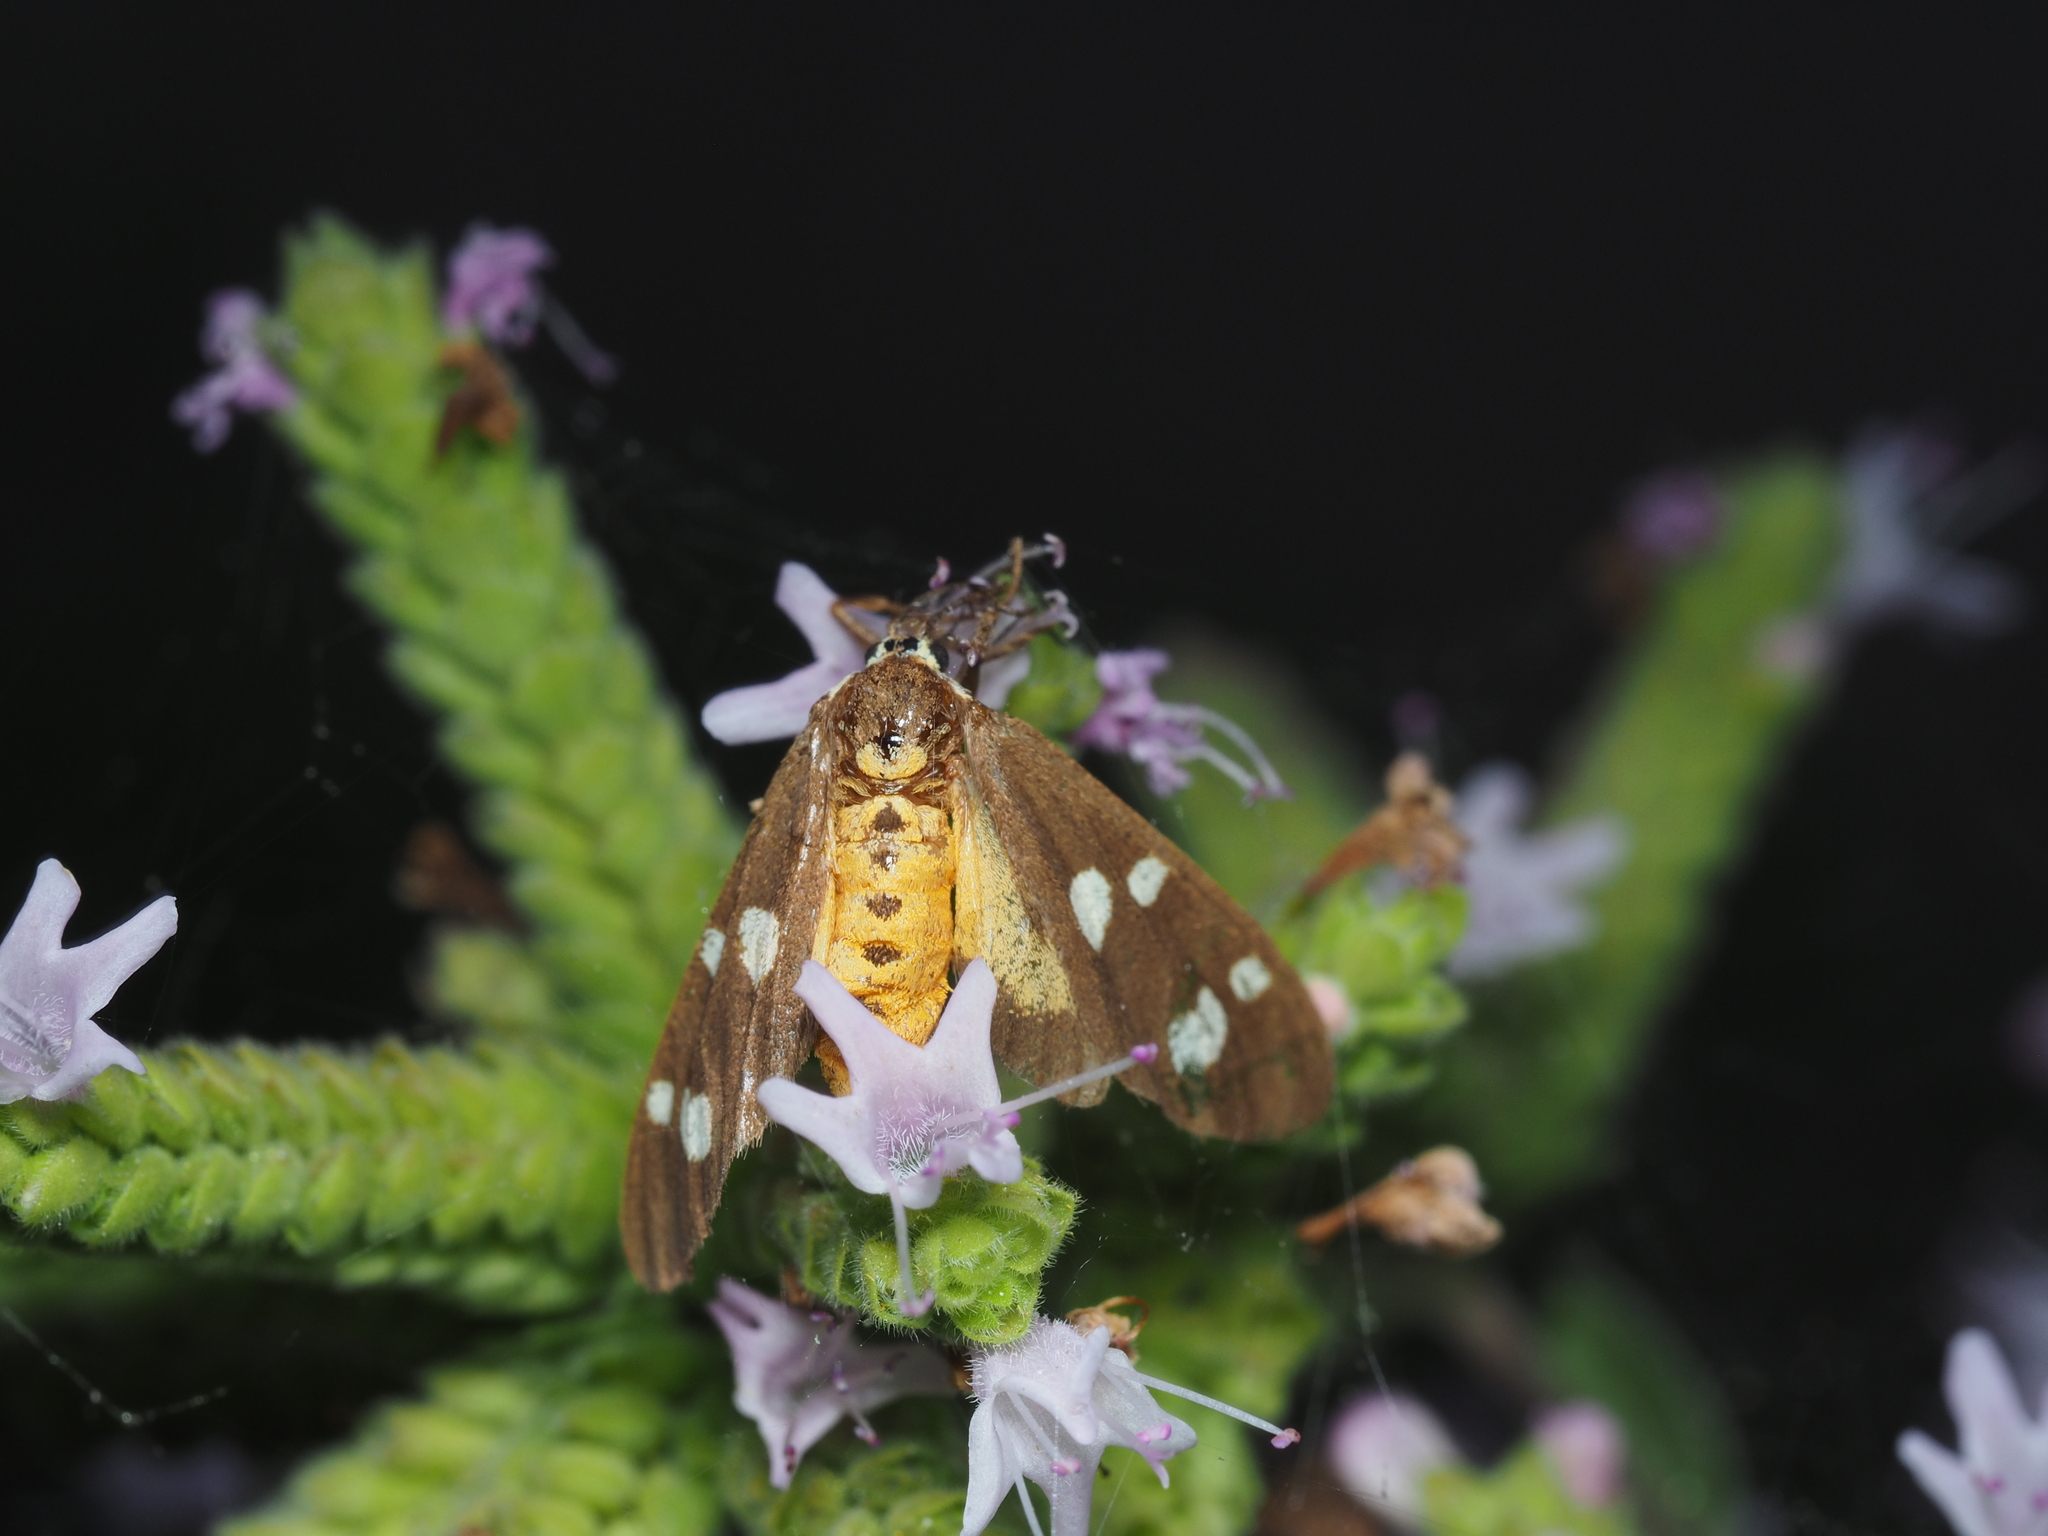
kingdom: Animalia
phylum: Arthropoda
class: Insecta
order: Lepidoptera
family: Erebidae
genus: Dysauxes
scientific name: Dysauxes punctata
